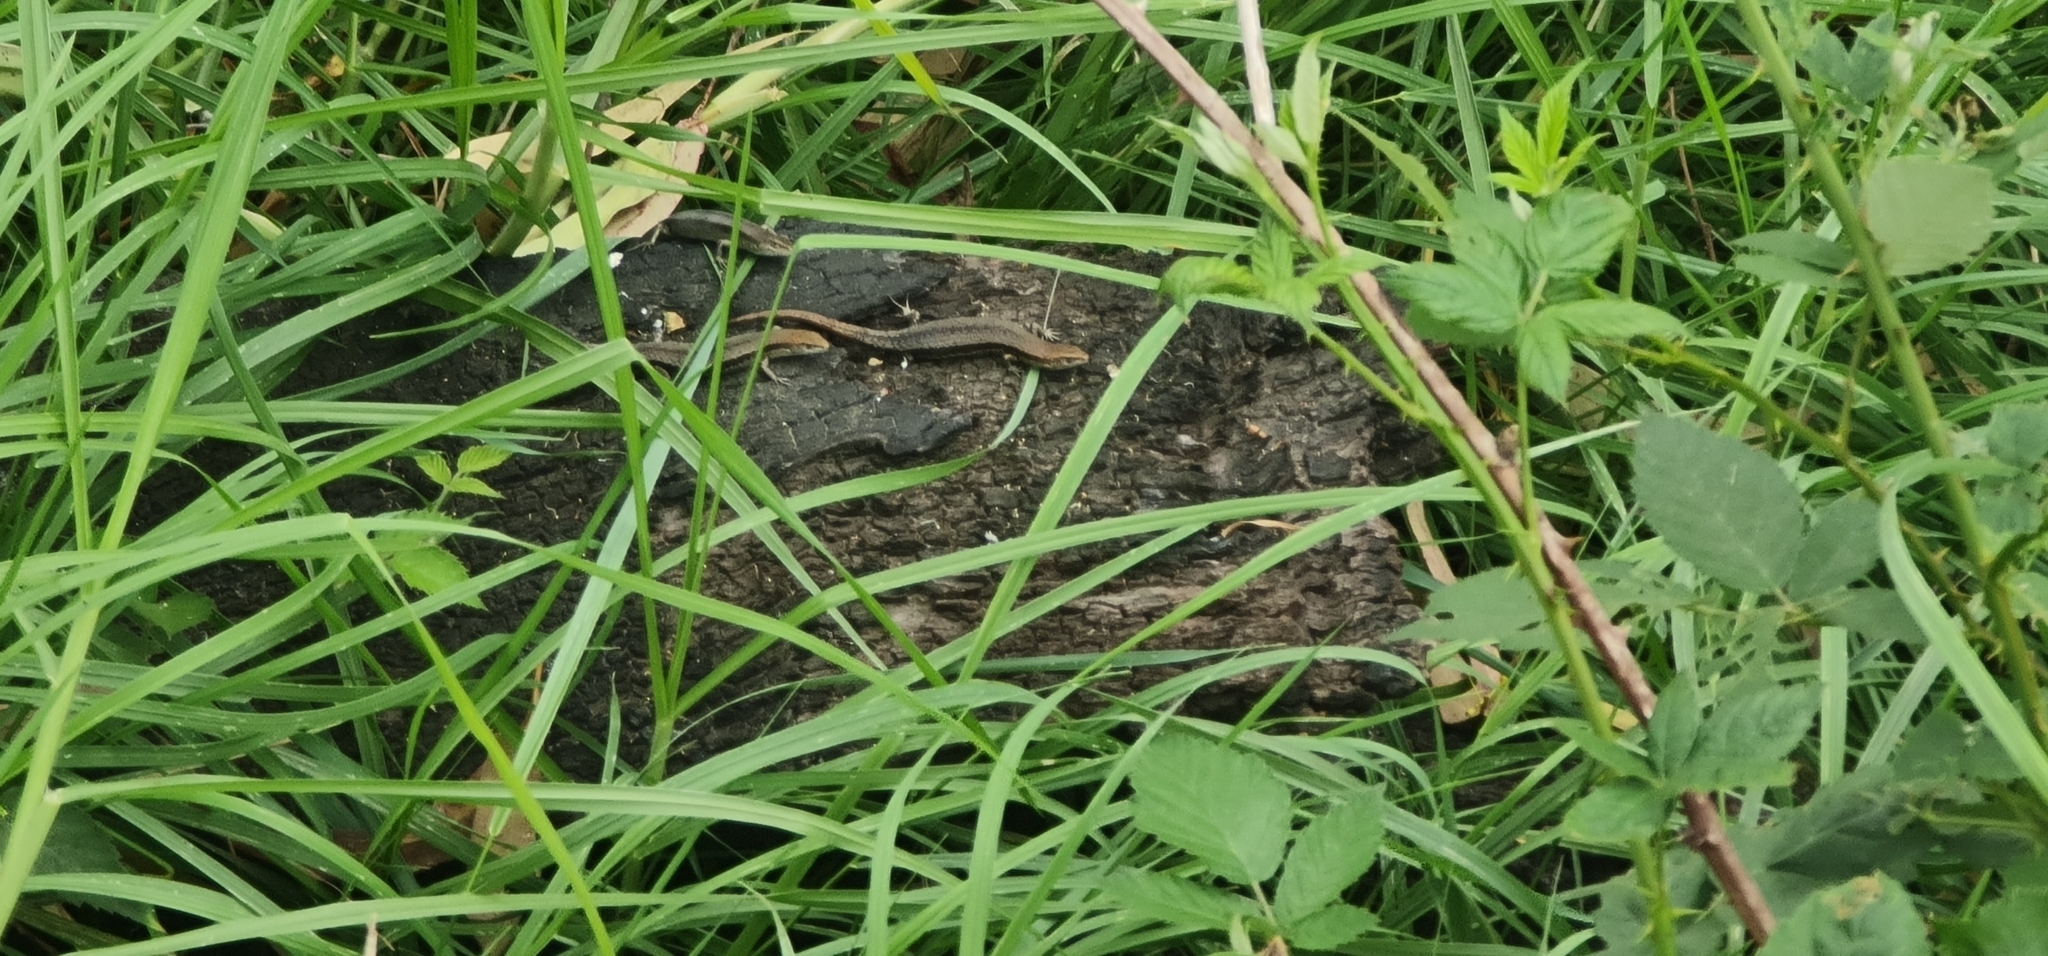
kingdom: Animalia
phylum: Chordata
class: Squamata
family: Scincidae
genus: Lampropholis
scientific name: Lampropholis guichenoti
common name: Garden skink
